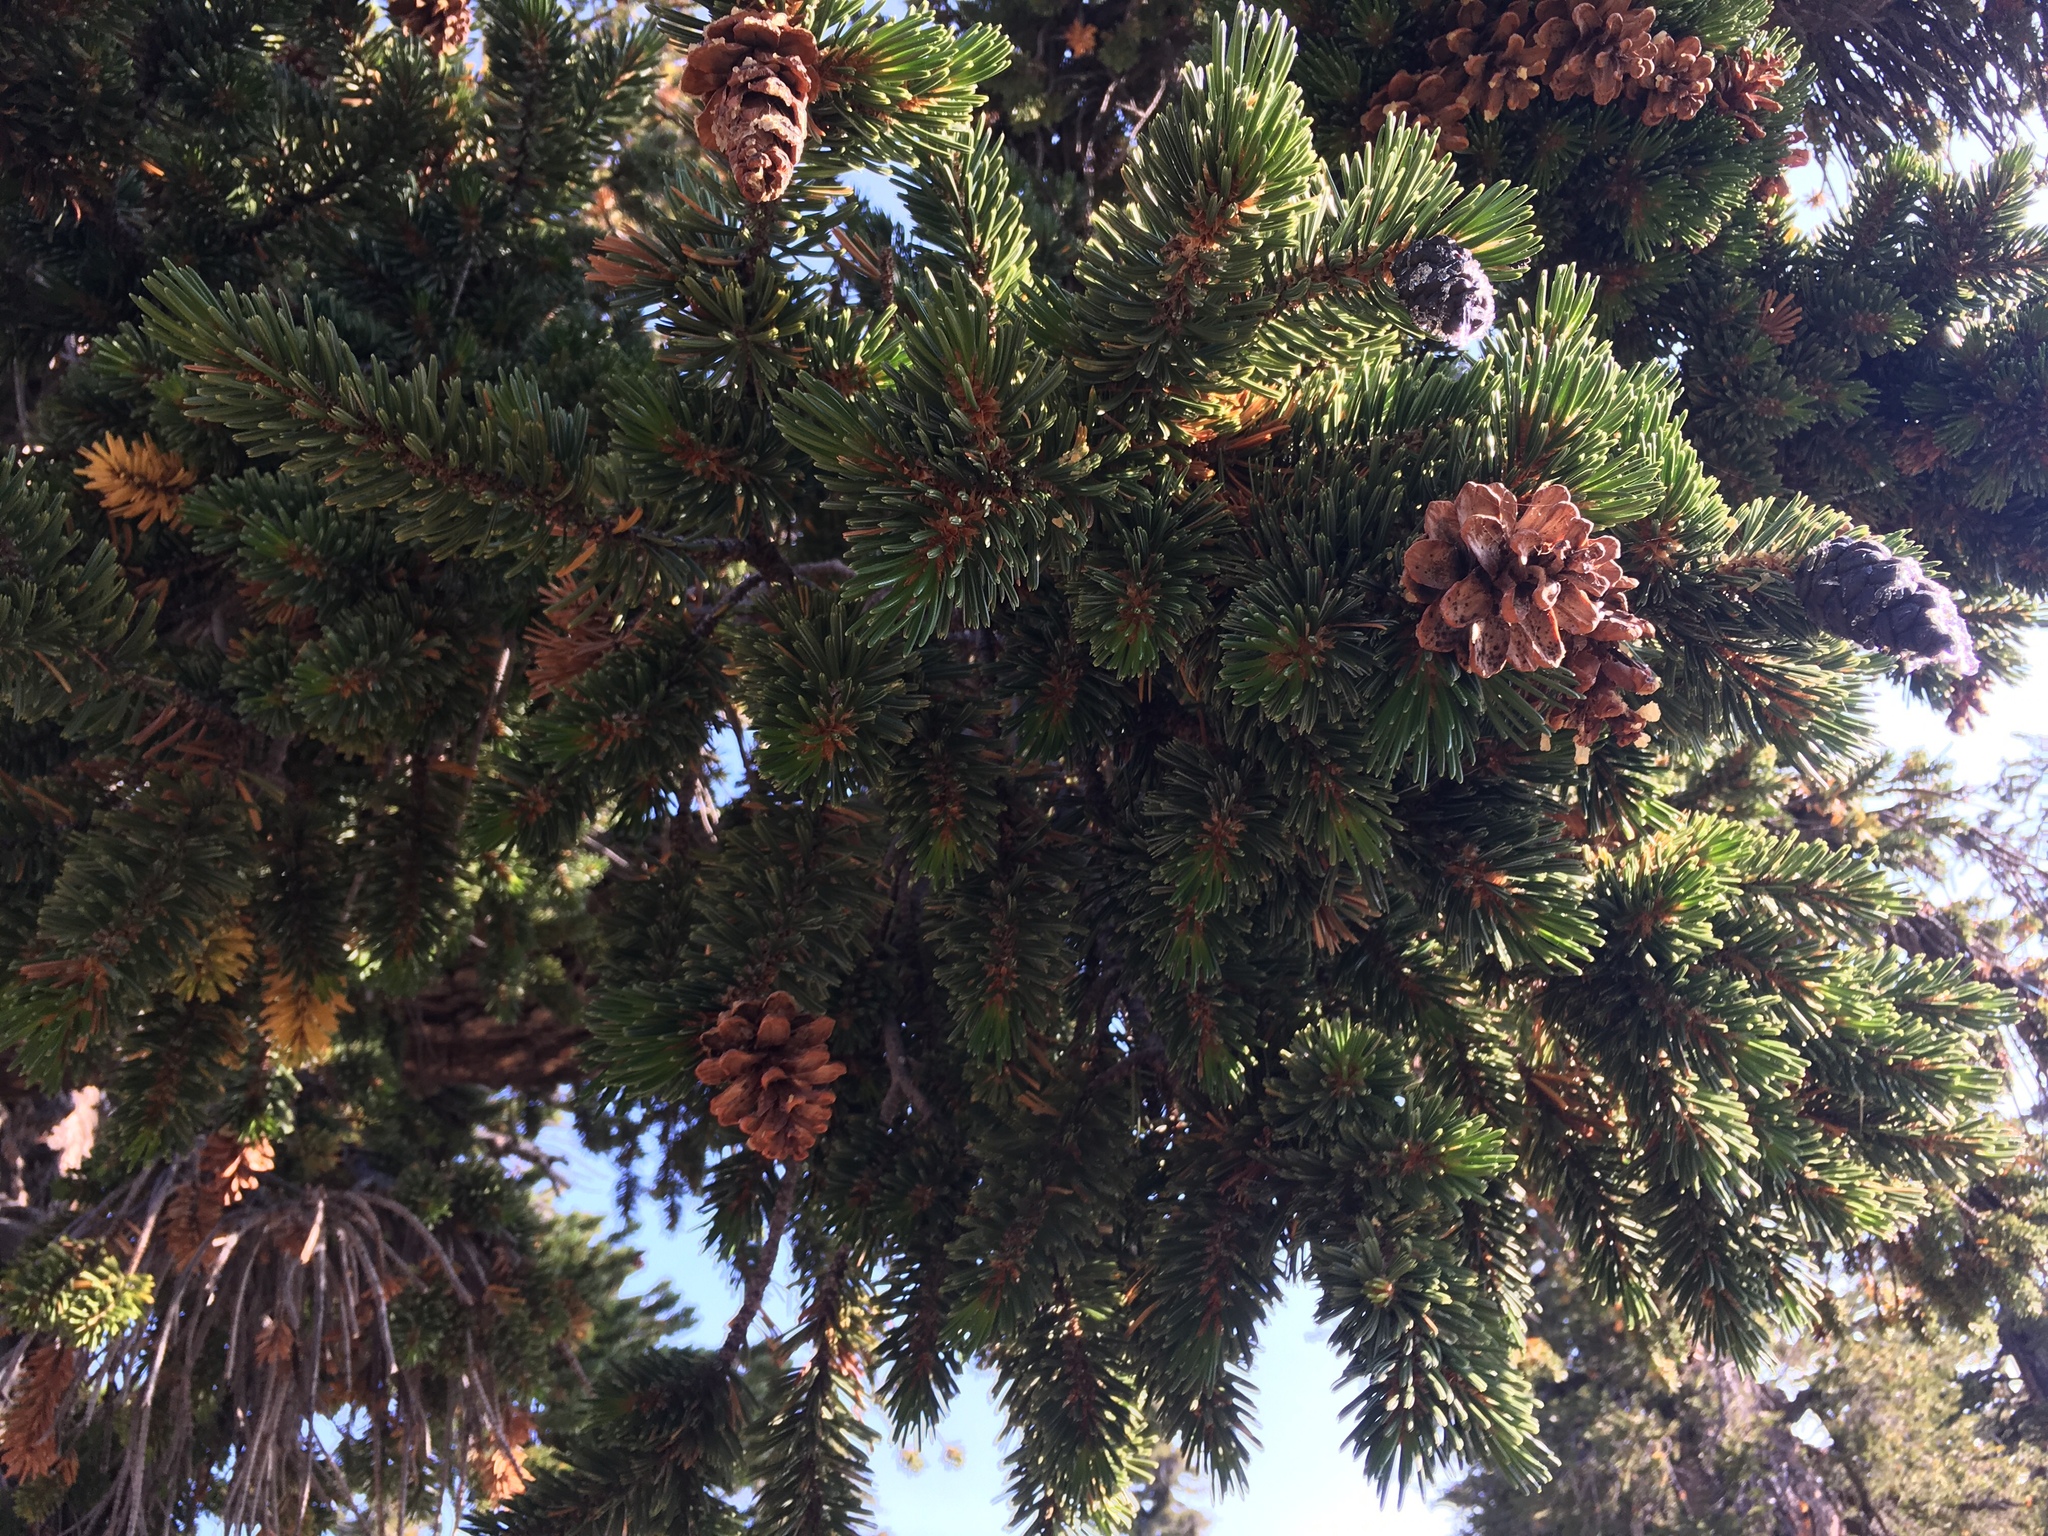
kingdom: Plantae
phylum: Tracheophyta
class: Pinopsida
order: Pinales
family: Pinaceae
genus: Pinus
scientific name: Pinus balfouriana
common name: Foxtail pine
